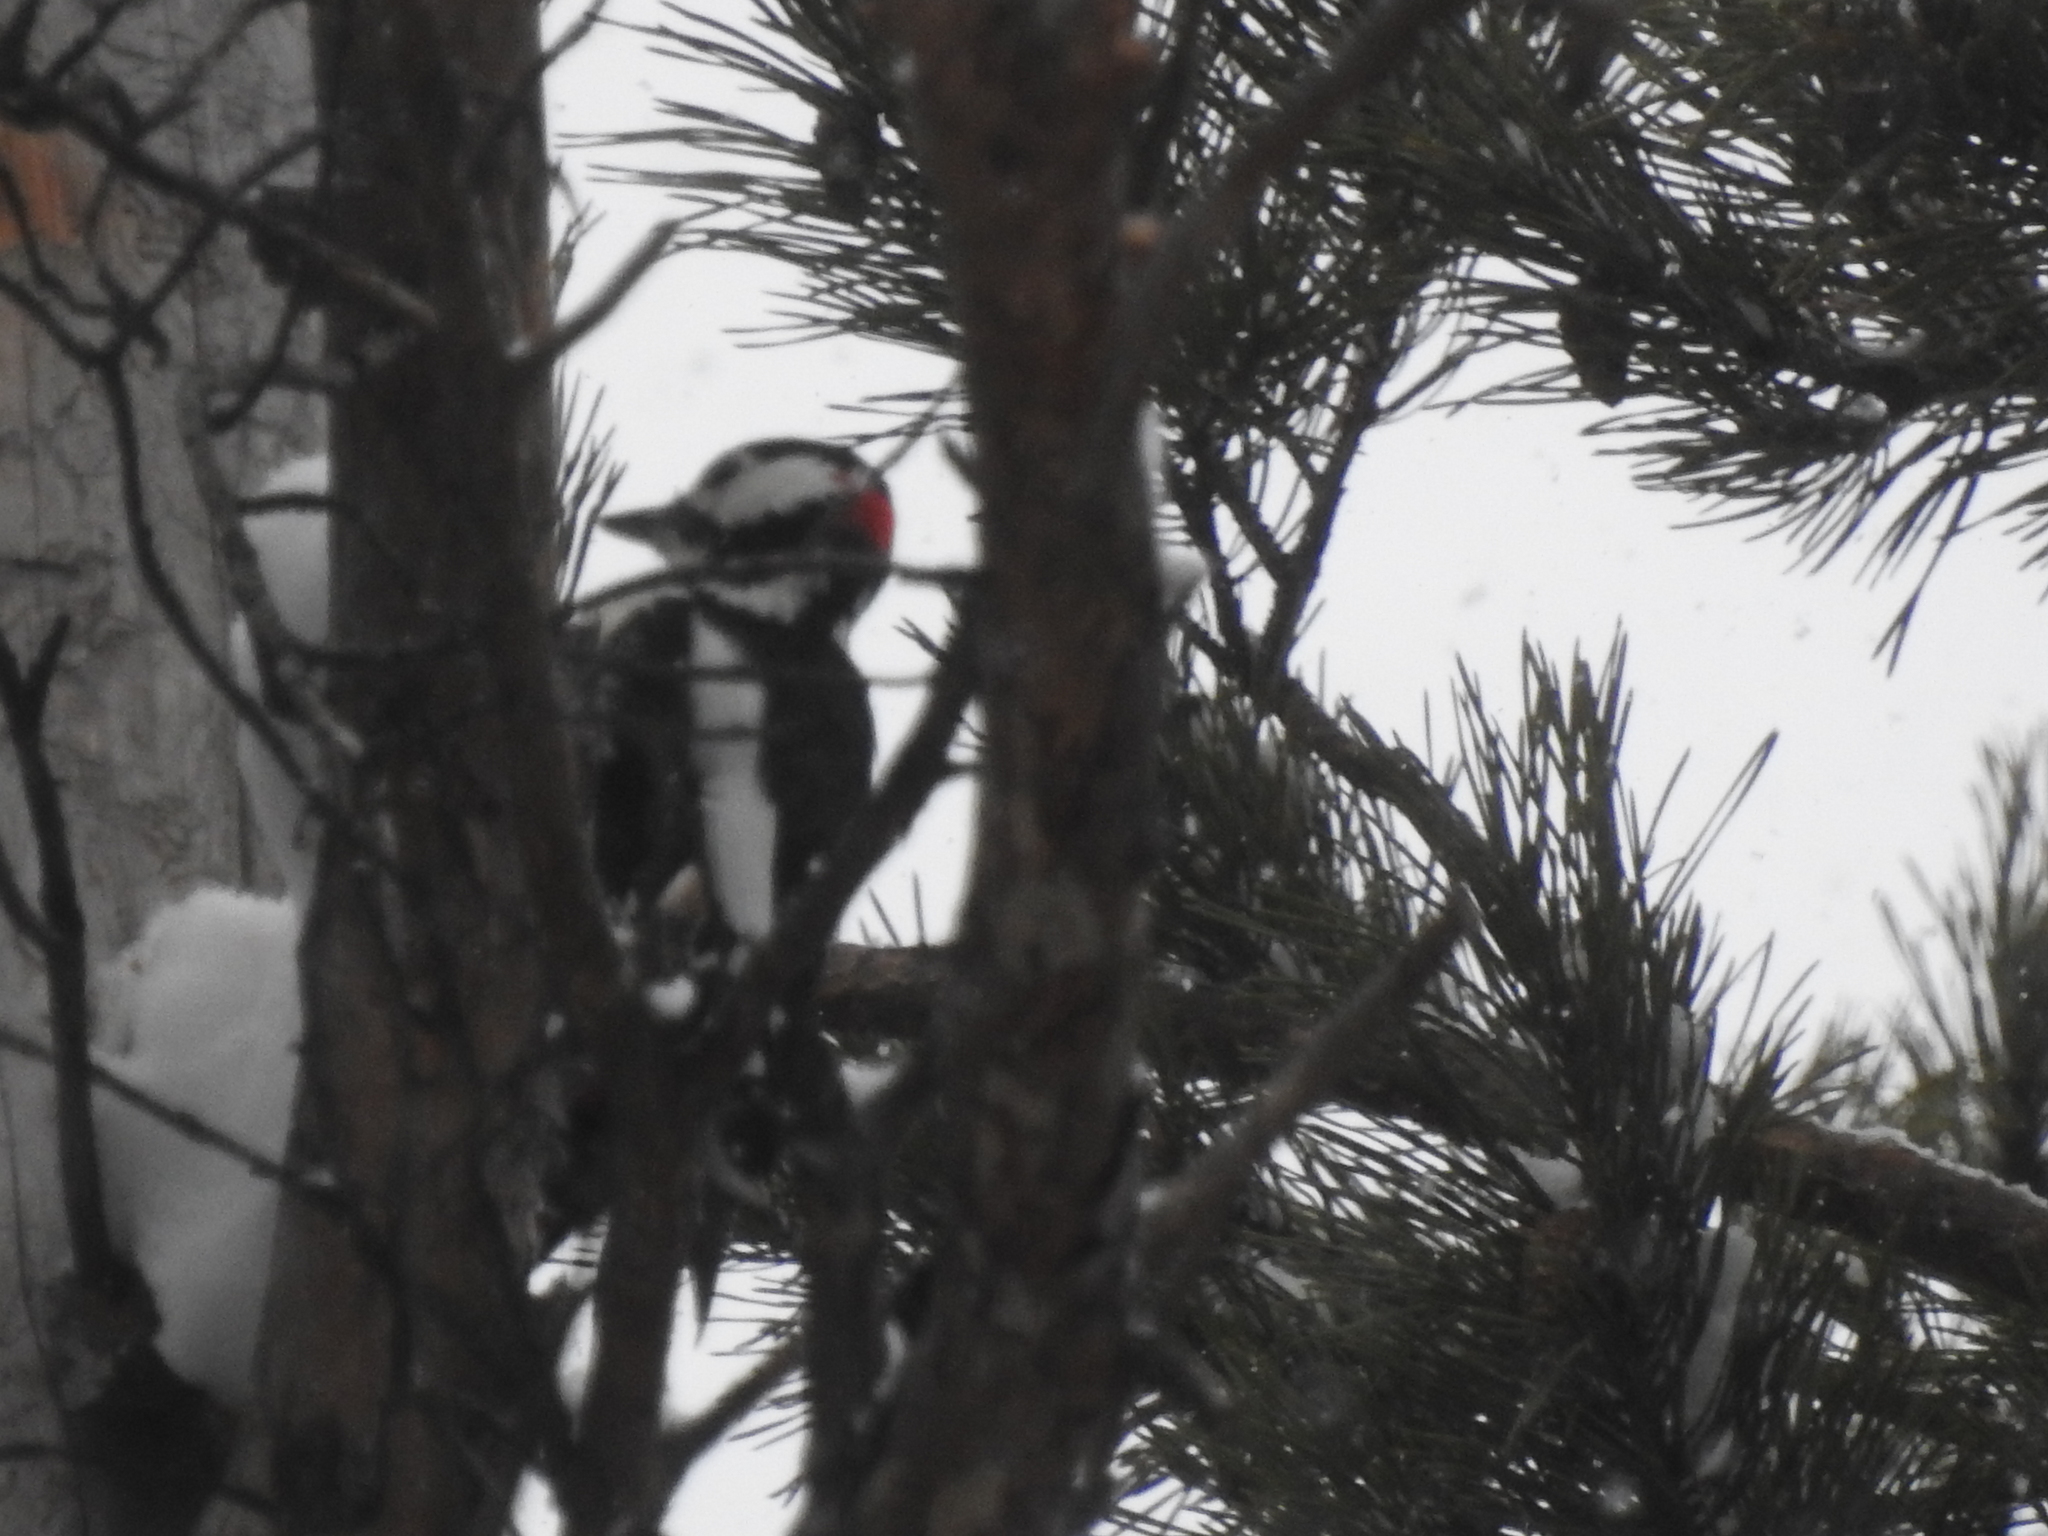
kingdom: Animalia
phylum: Chordata
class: Aves
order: Piciformes
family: Picidae
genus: Dendrocopos
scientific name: Dendrocopos major
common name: Great spotted woodpecker
